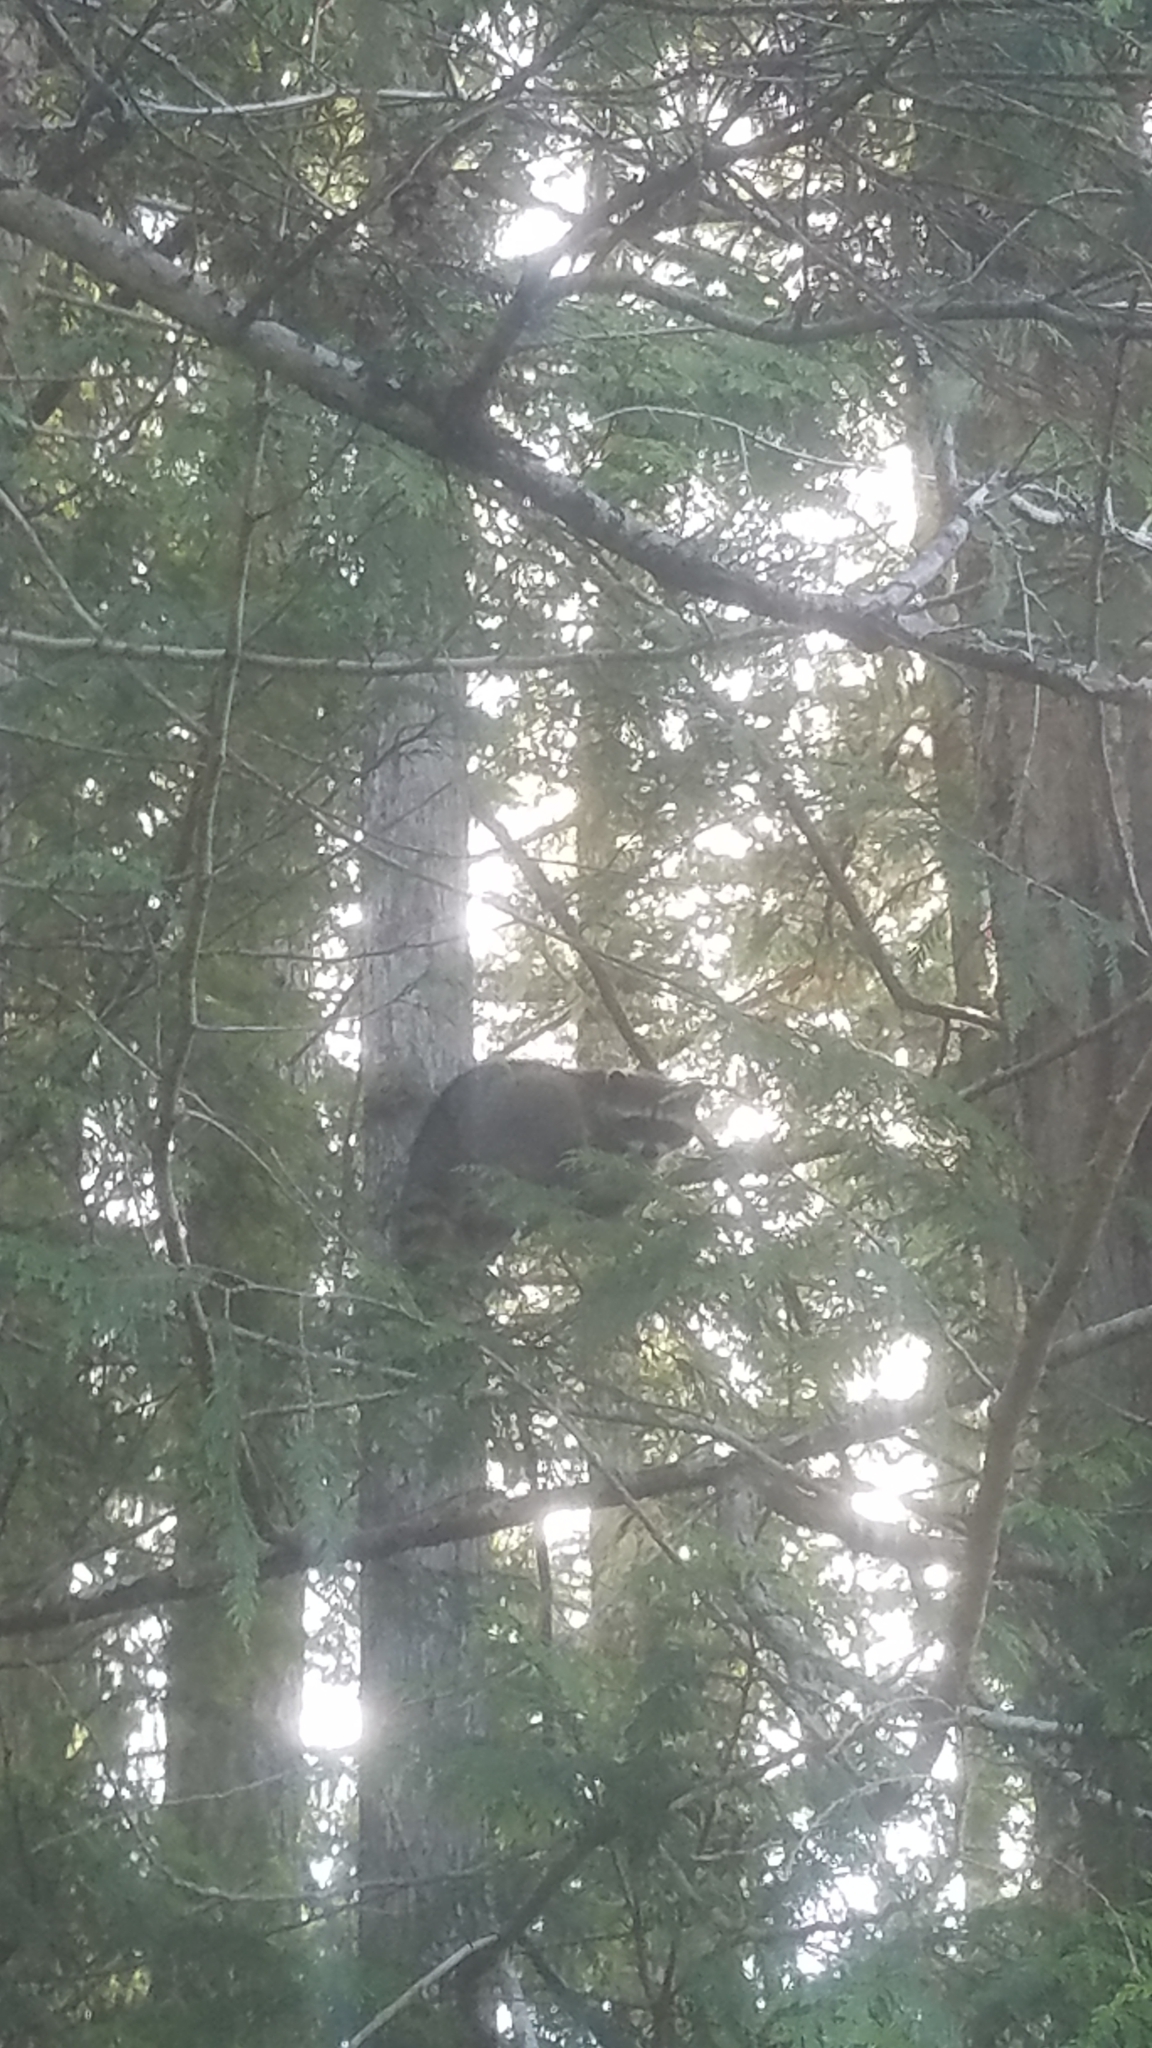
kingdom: Animalia
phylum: Chordata
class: Mammalia
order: Carnivora
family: Procyonidae
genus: Procyon
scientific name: Procyon lotor
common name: Raccoon
